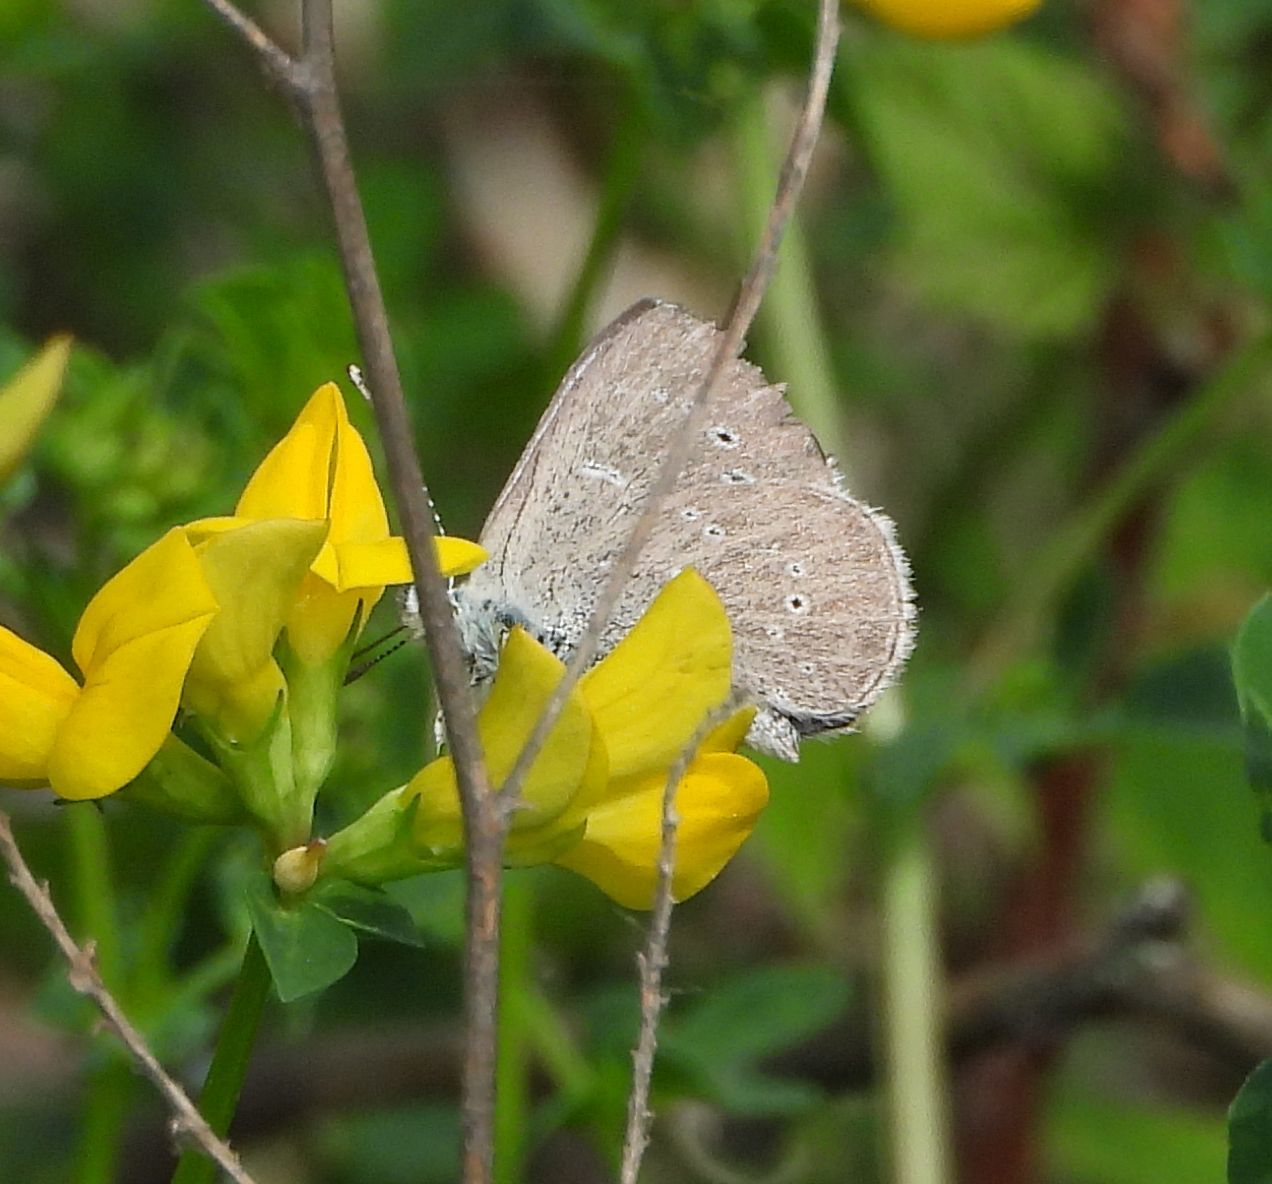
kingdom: Animalia
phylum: Arthropoda
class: Insecta
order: Lepidoptera
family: Lycaenidae
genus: Glaucopsyche
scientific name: Glaucopsyche lygdamus
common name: Silvery blue
